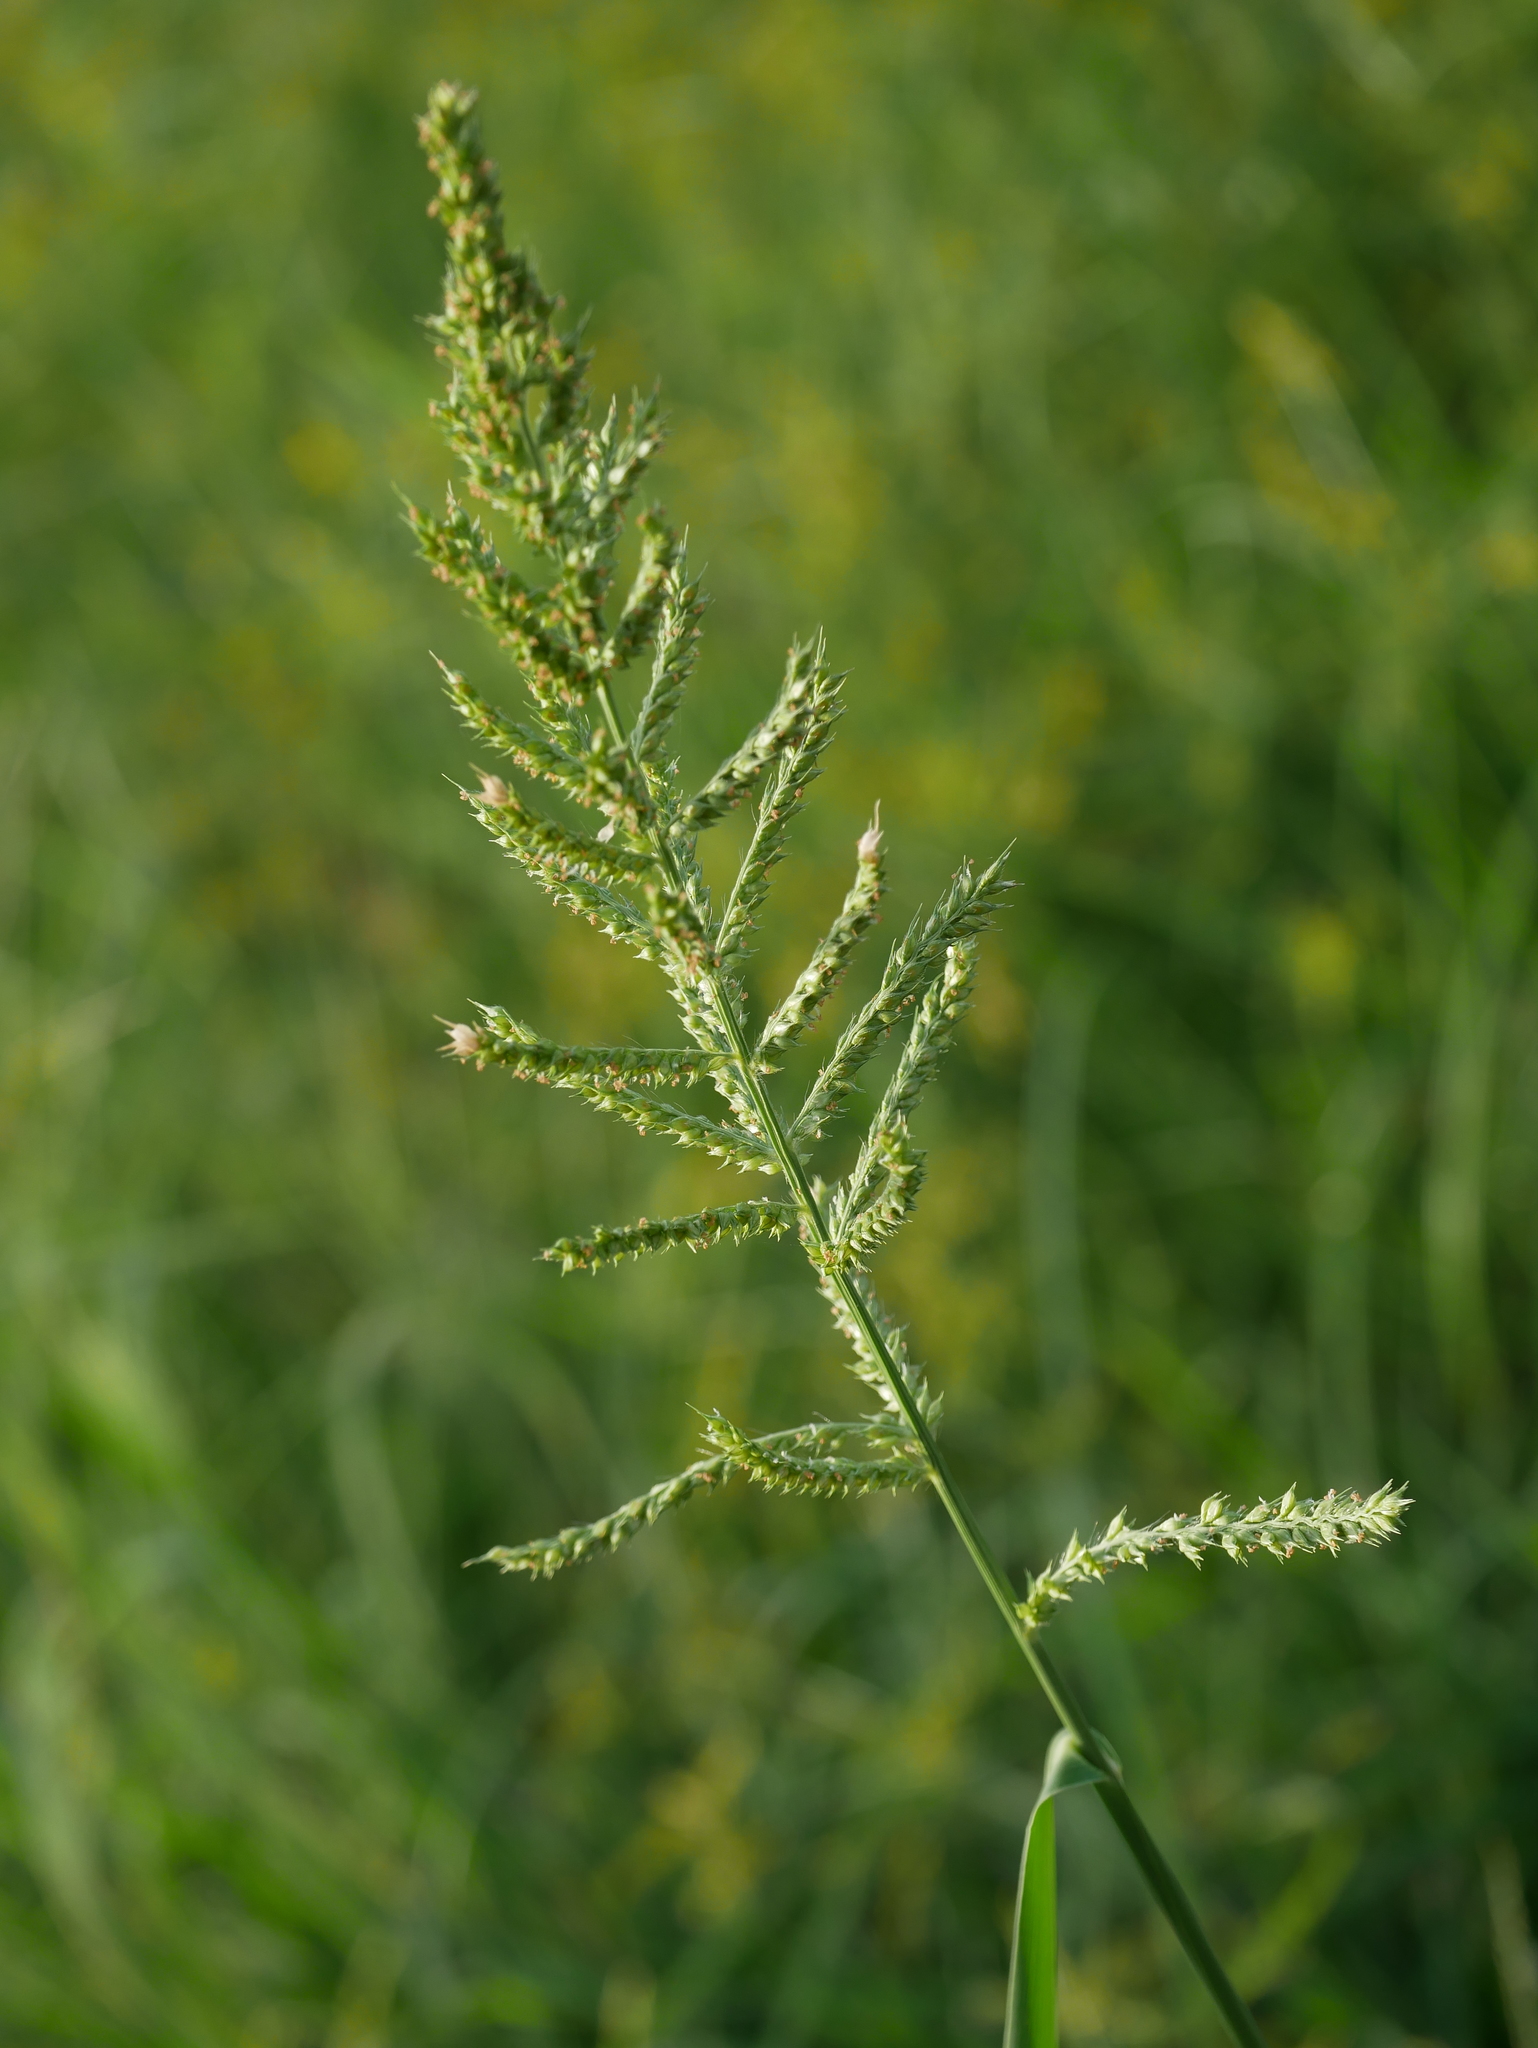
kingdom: Plantae
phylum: Tracheophyta
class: Liliopsida
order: Poales
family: Poaceae
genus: Echinochloa
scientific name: Echinochloa crus-galli
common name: Cockspur
